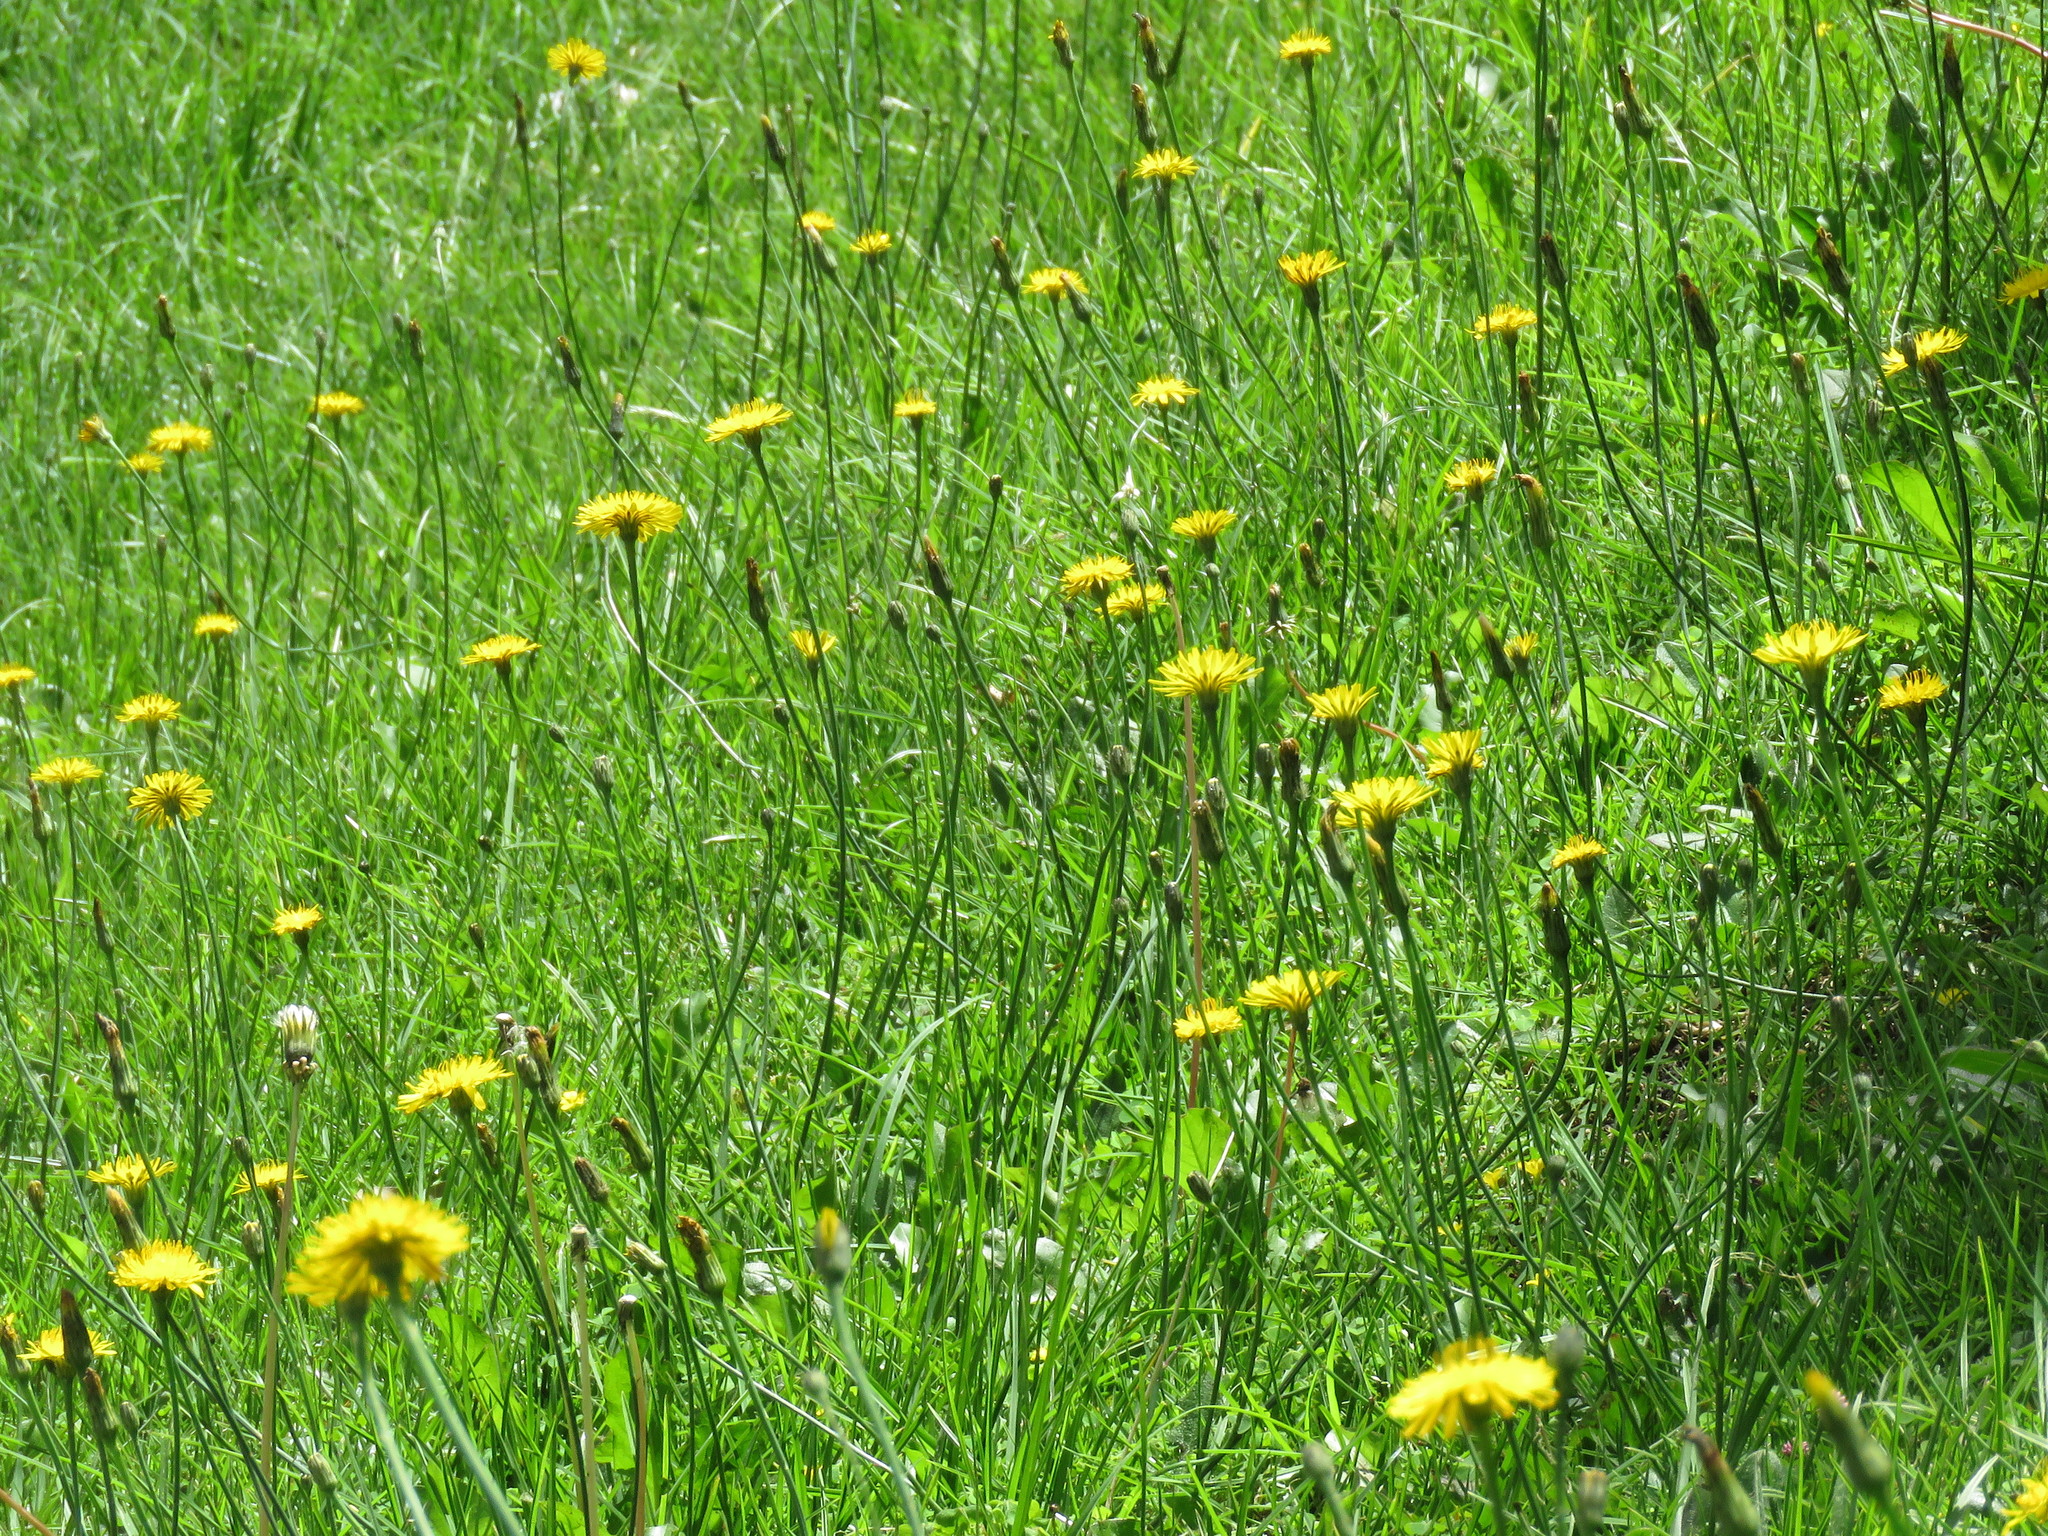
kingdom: Plantae
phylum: Tracheophyta
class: Magnoliopsida
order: Asterales
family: Asteraceae
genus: Hypochaeris
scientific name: Hypochaeris radicata
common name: Flatweed
